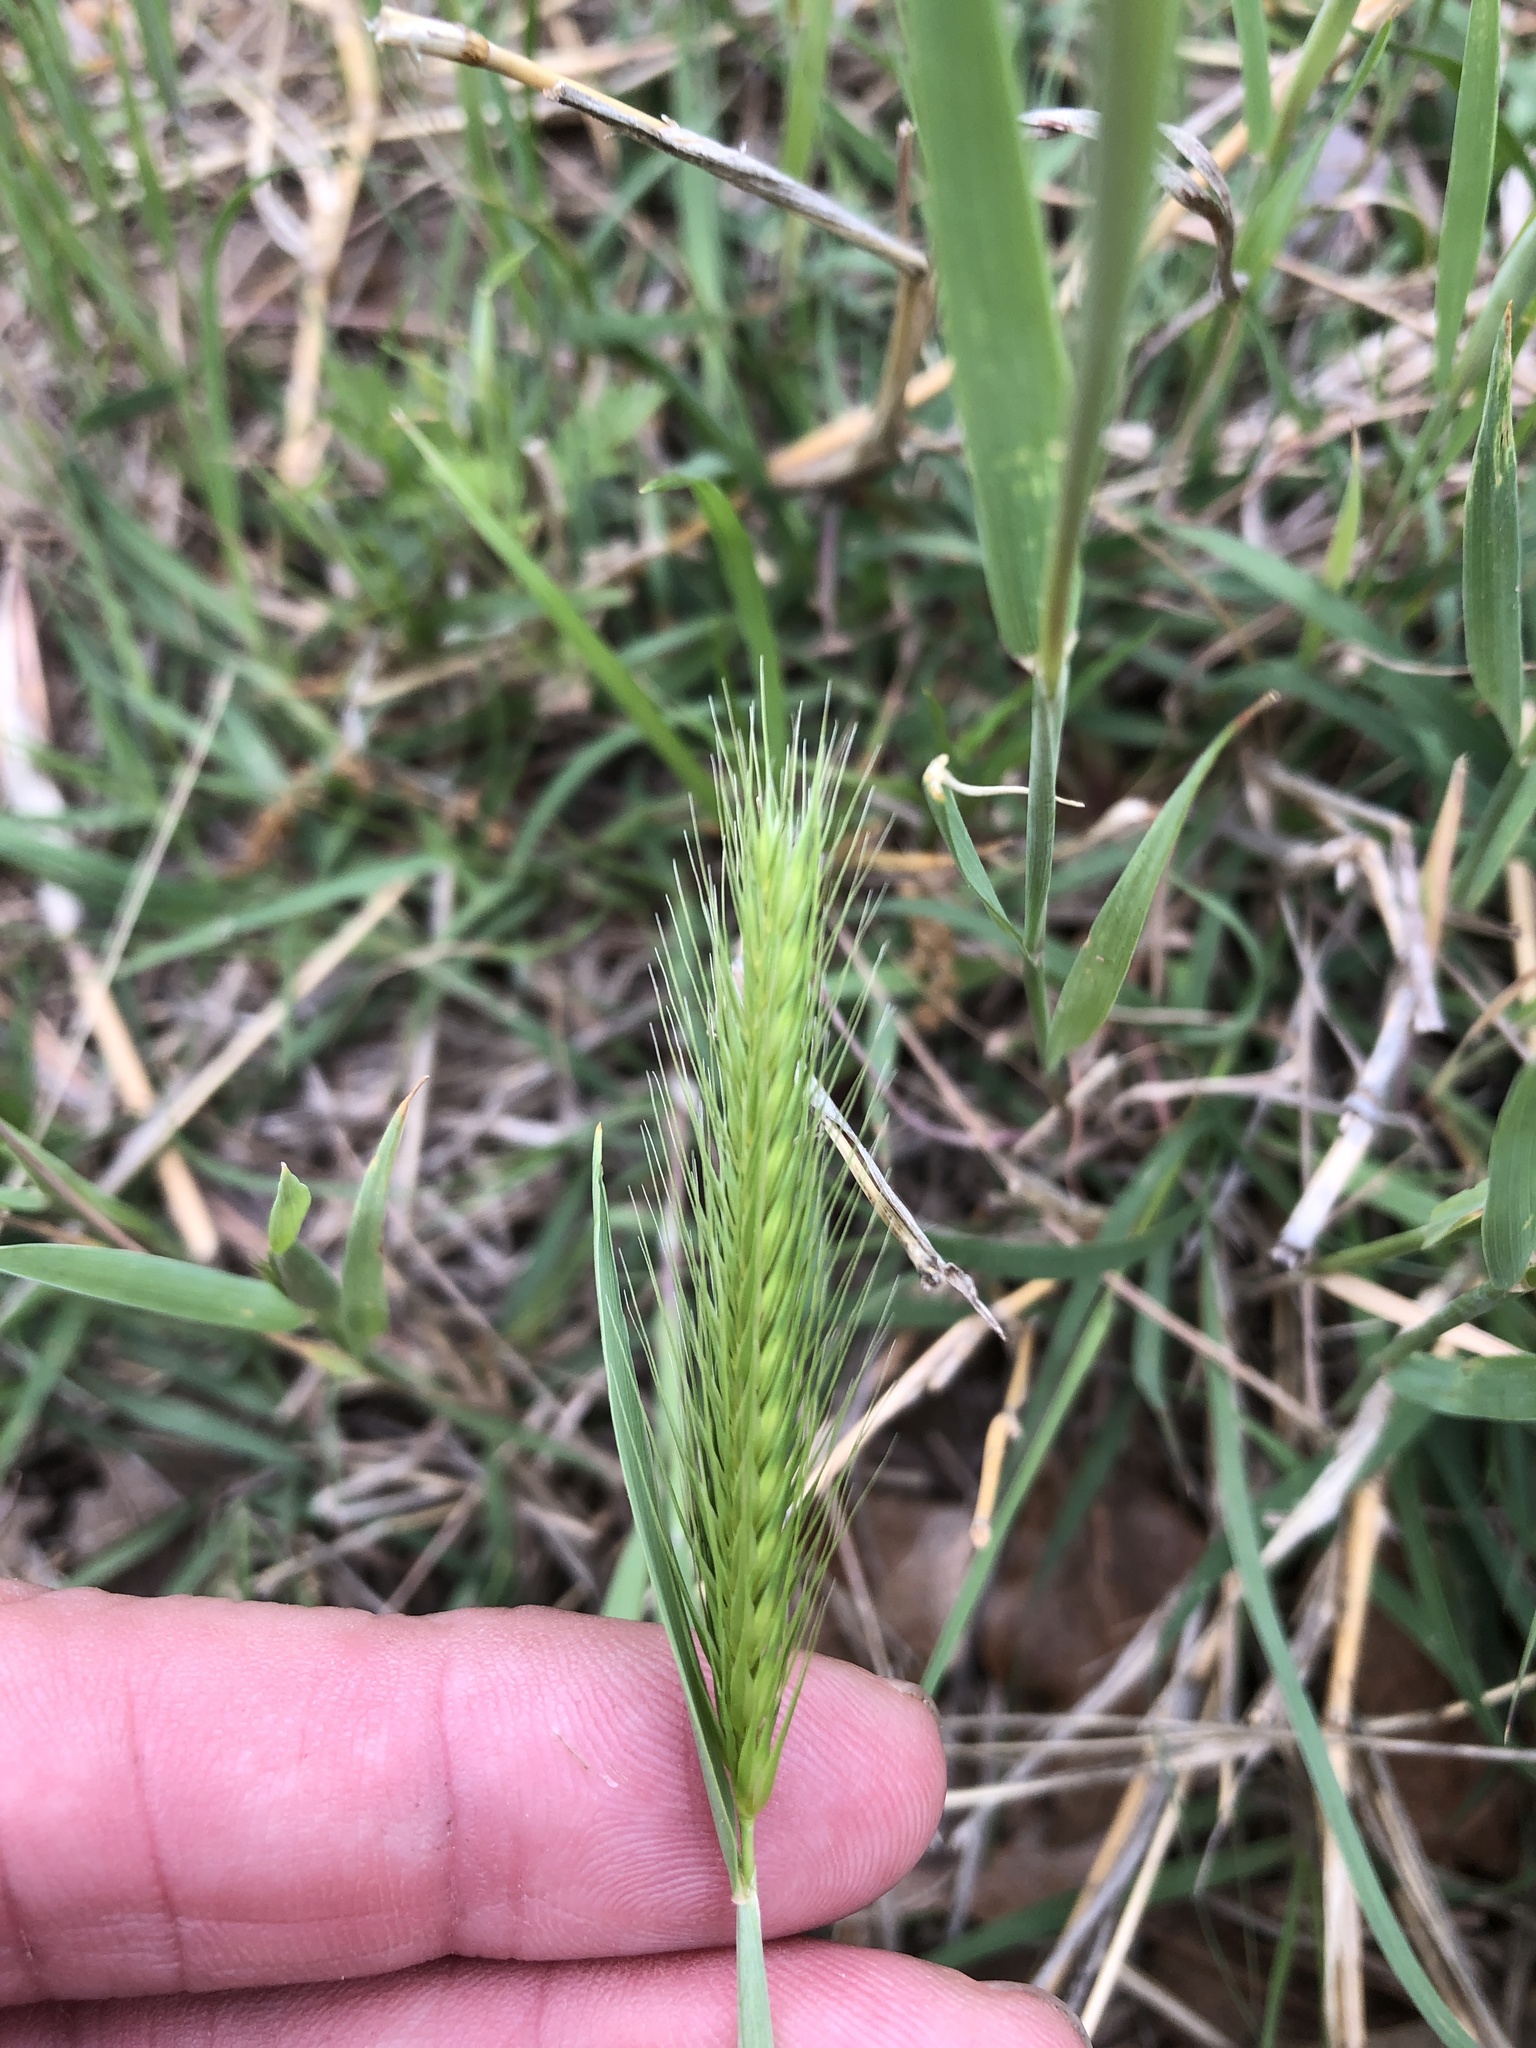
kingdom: Plantae
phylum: Tracheophyta
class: Liliopsida
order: Poales
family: Poaceae
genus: Hordeum
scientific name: Hordeum pusillum
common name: Little barley
